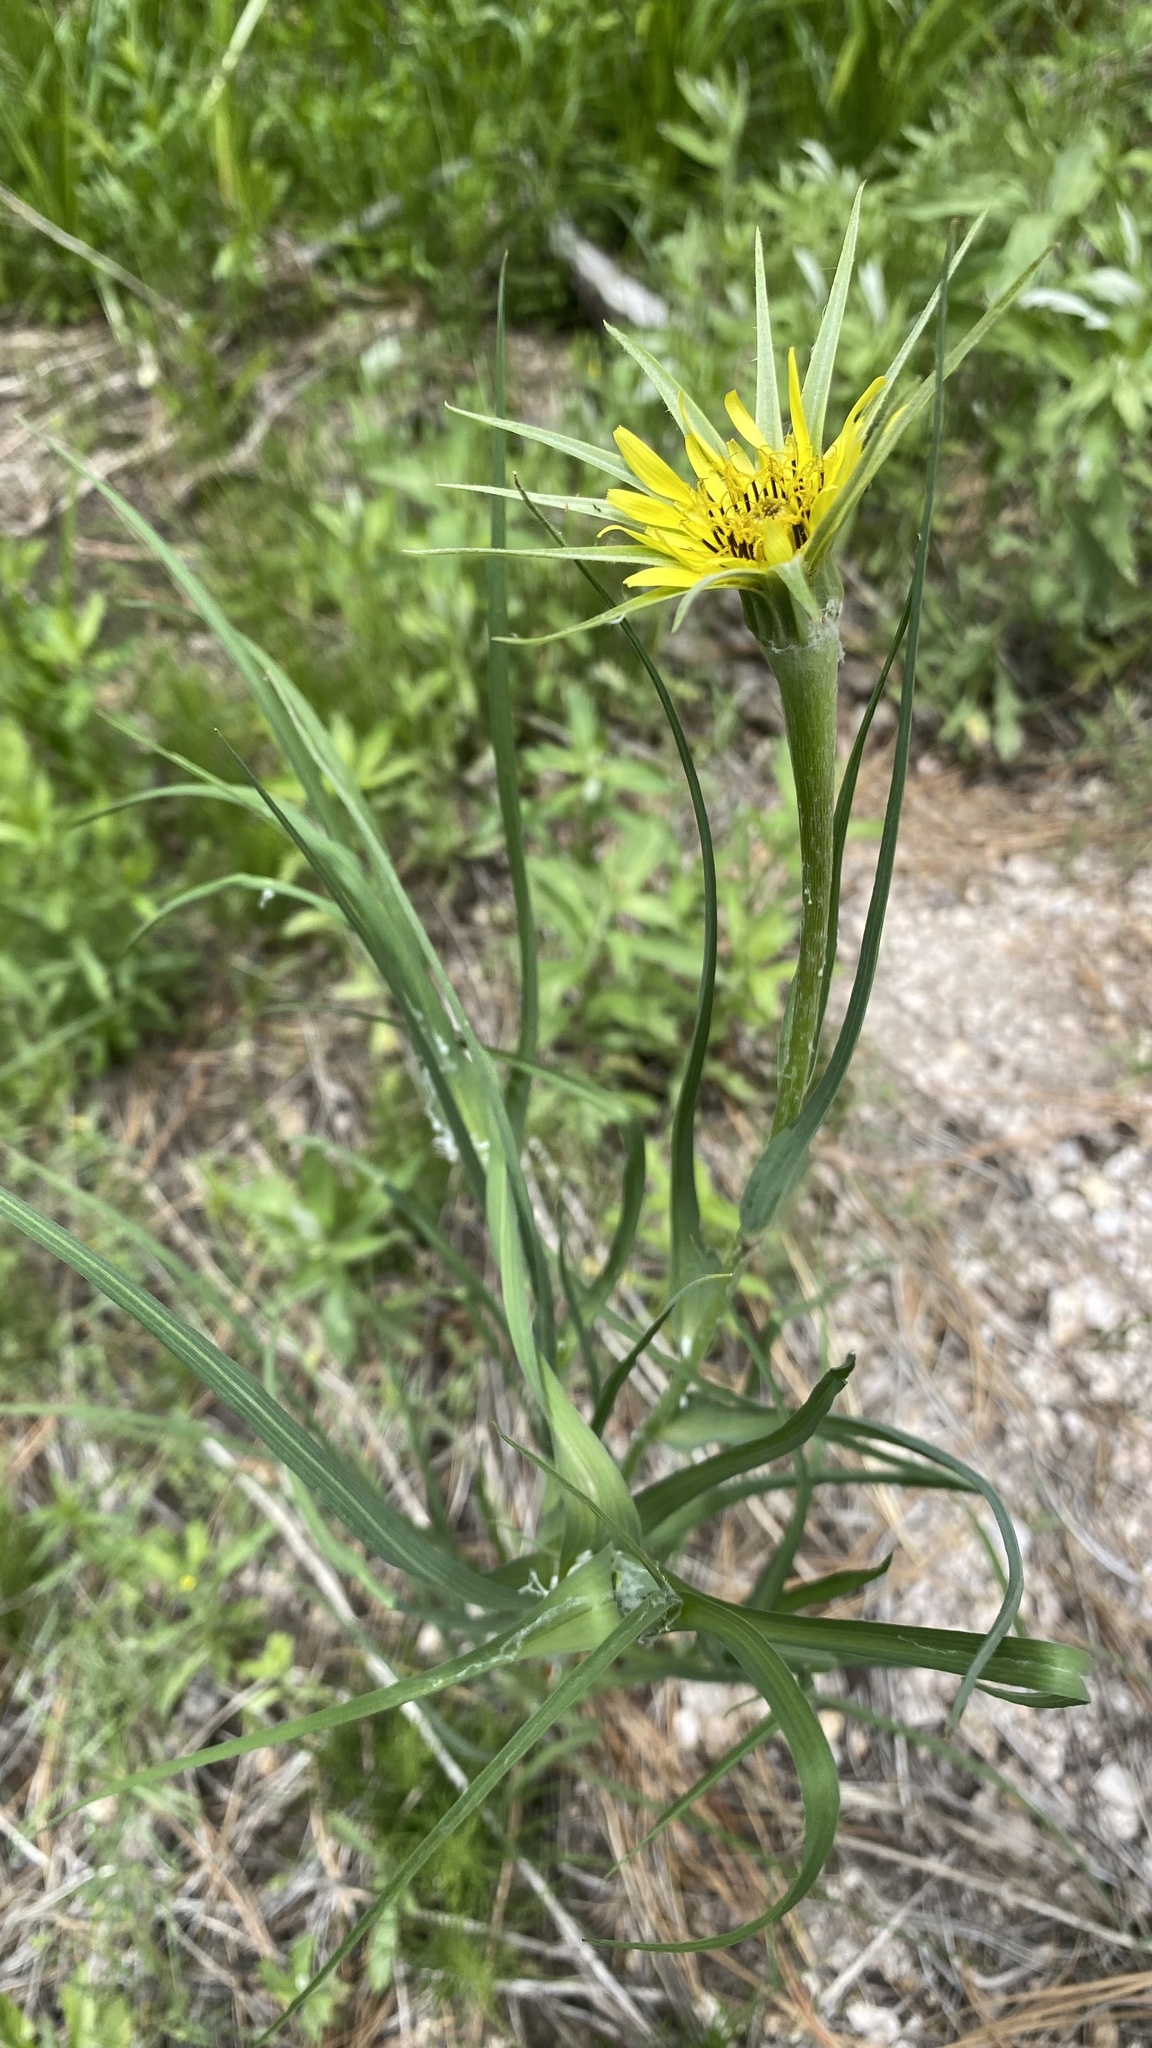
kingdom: Plantae
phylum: Tracheophyta
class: Magnoliopsida
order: Asterales
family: Asteraceae
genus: Tragopogon
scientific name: Tragopogon dubius
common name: Yellow salsify
